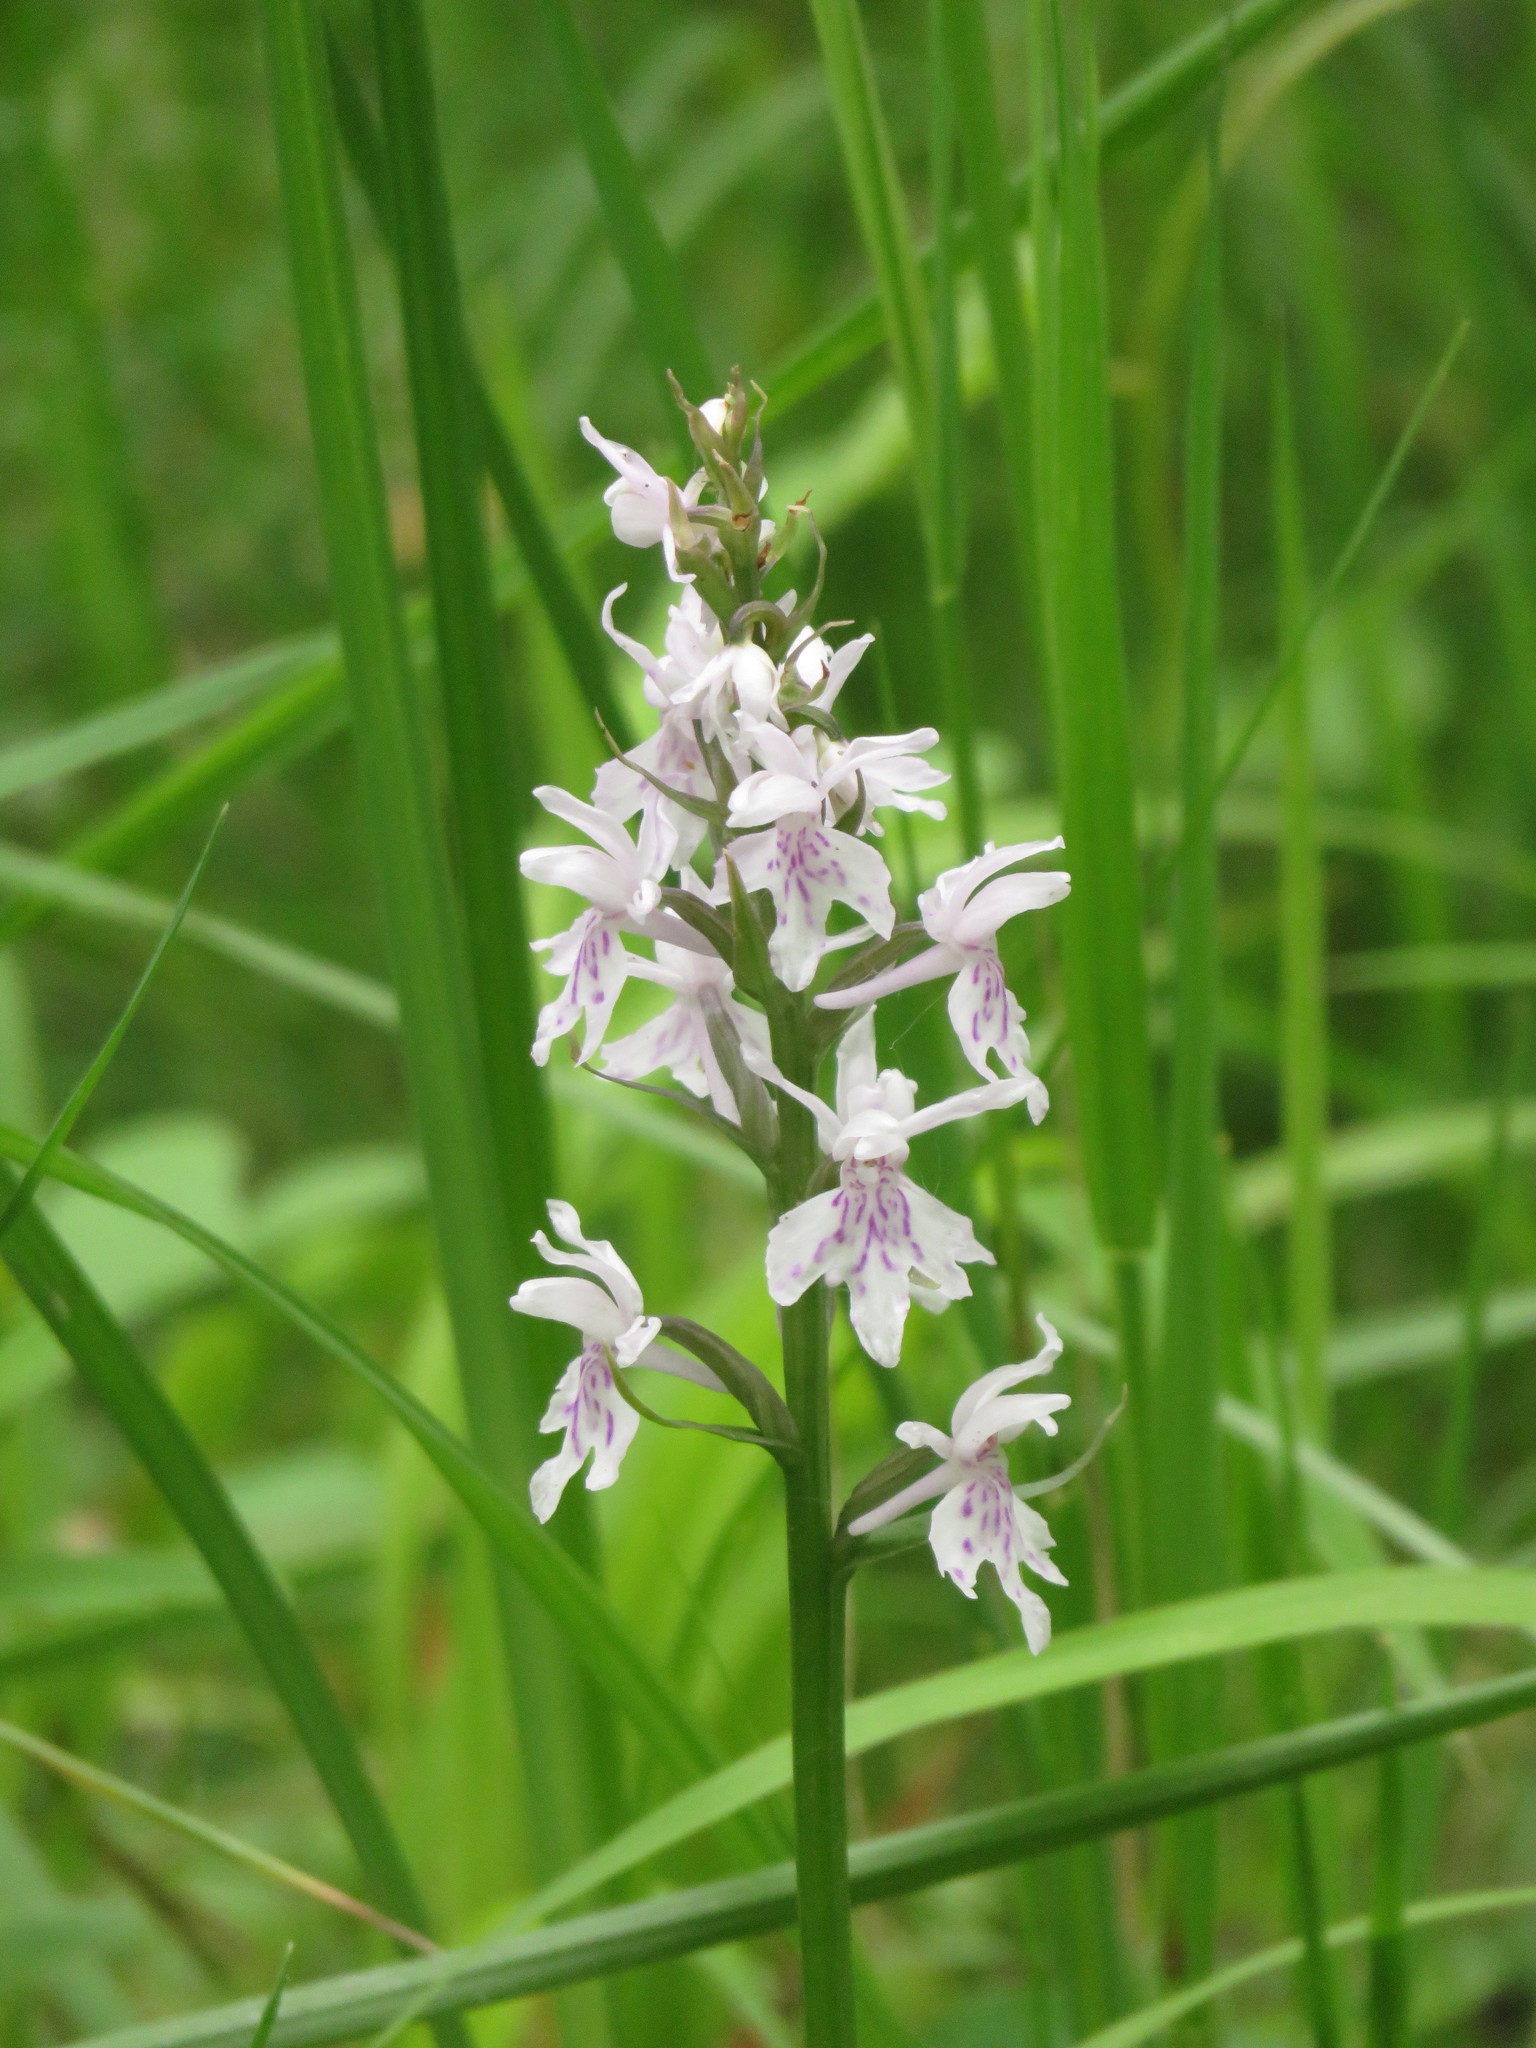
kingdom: Plantae
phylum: Tracheophyta
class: Liliopsida
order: Asparagales
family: Orchidaceae
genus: Dactylorhiza
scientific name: Dactylorhiza maculata
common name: Heath spotted-orchid
